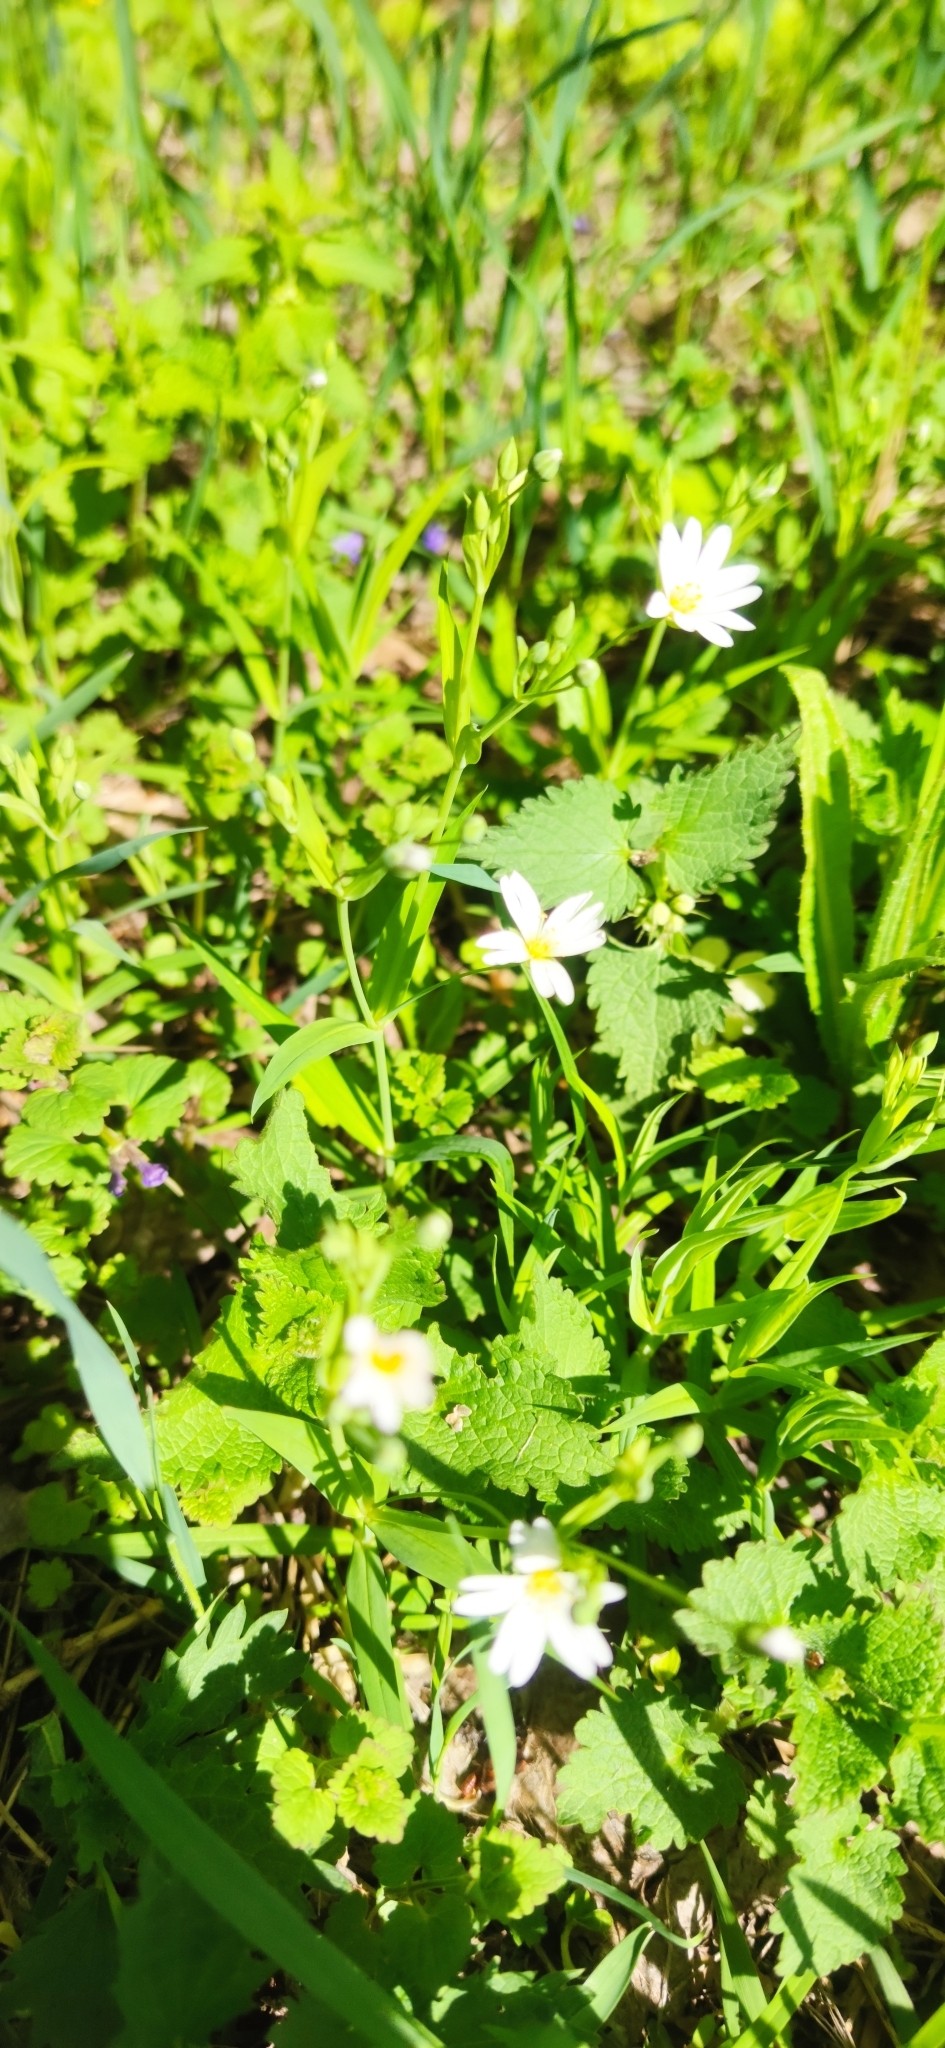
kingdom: Plantae
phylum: Tracheophyta
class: Magnoliopsida
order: Caryophyllales
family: Caryophyllaceae
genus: Rabelera
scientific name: Rabelera holostea
